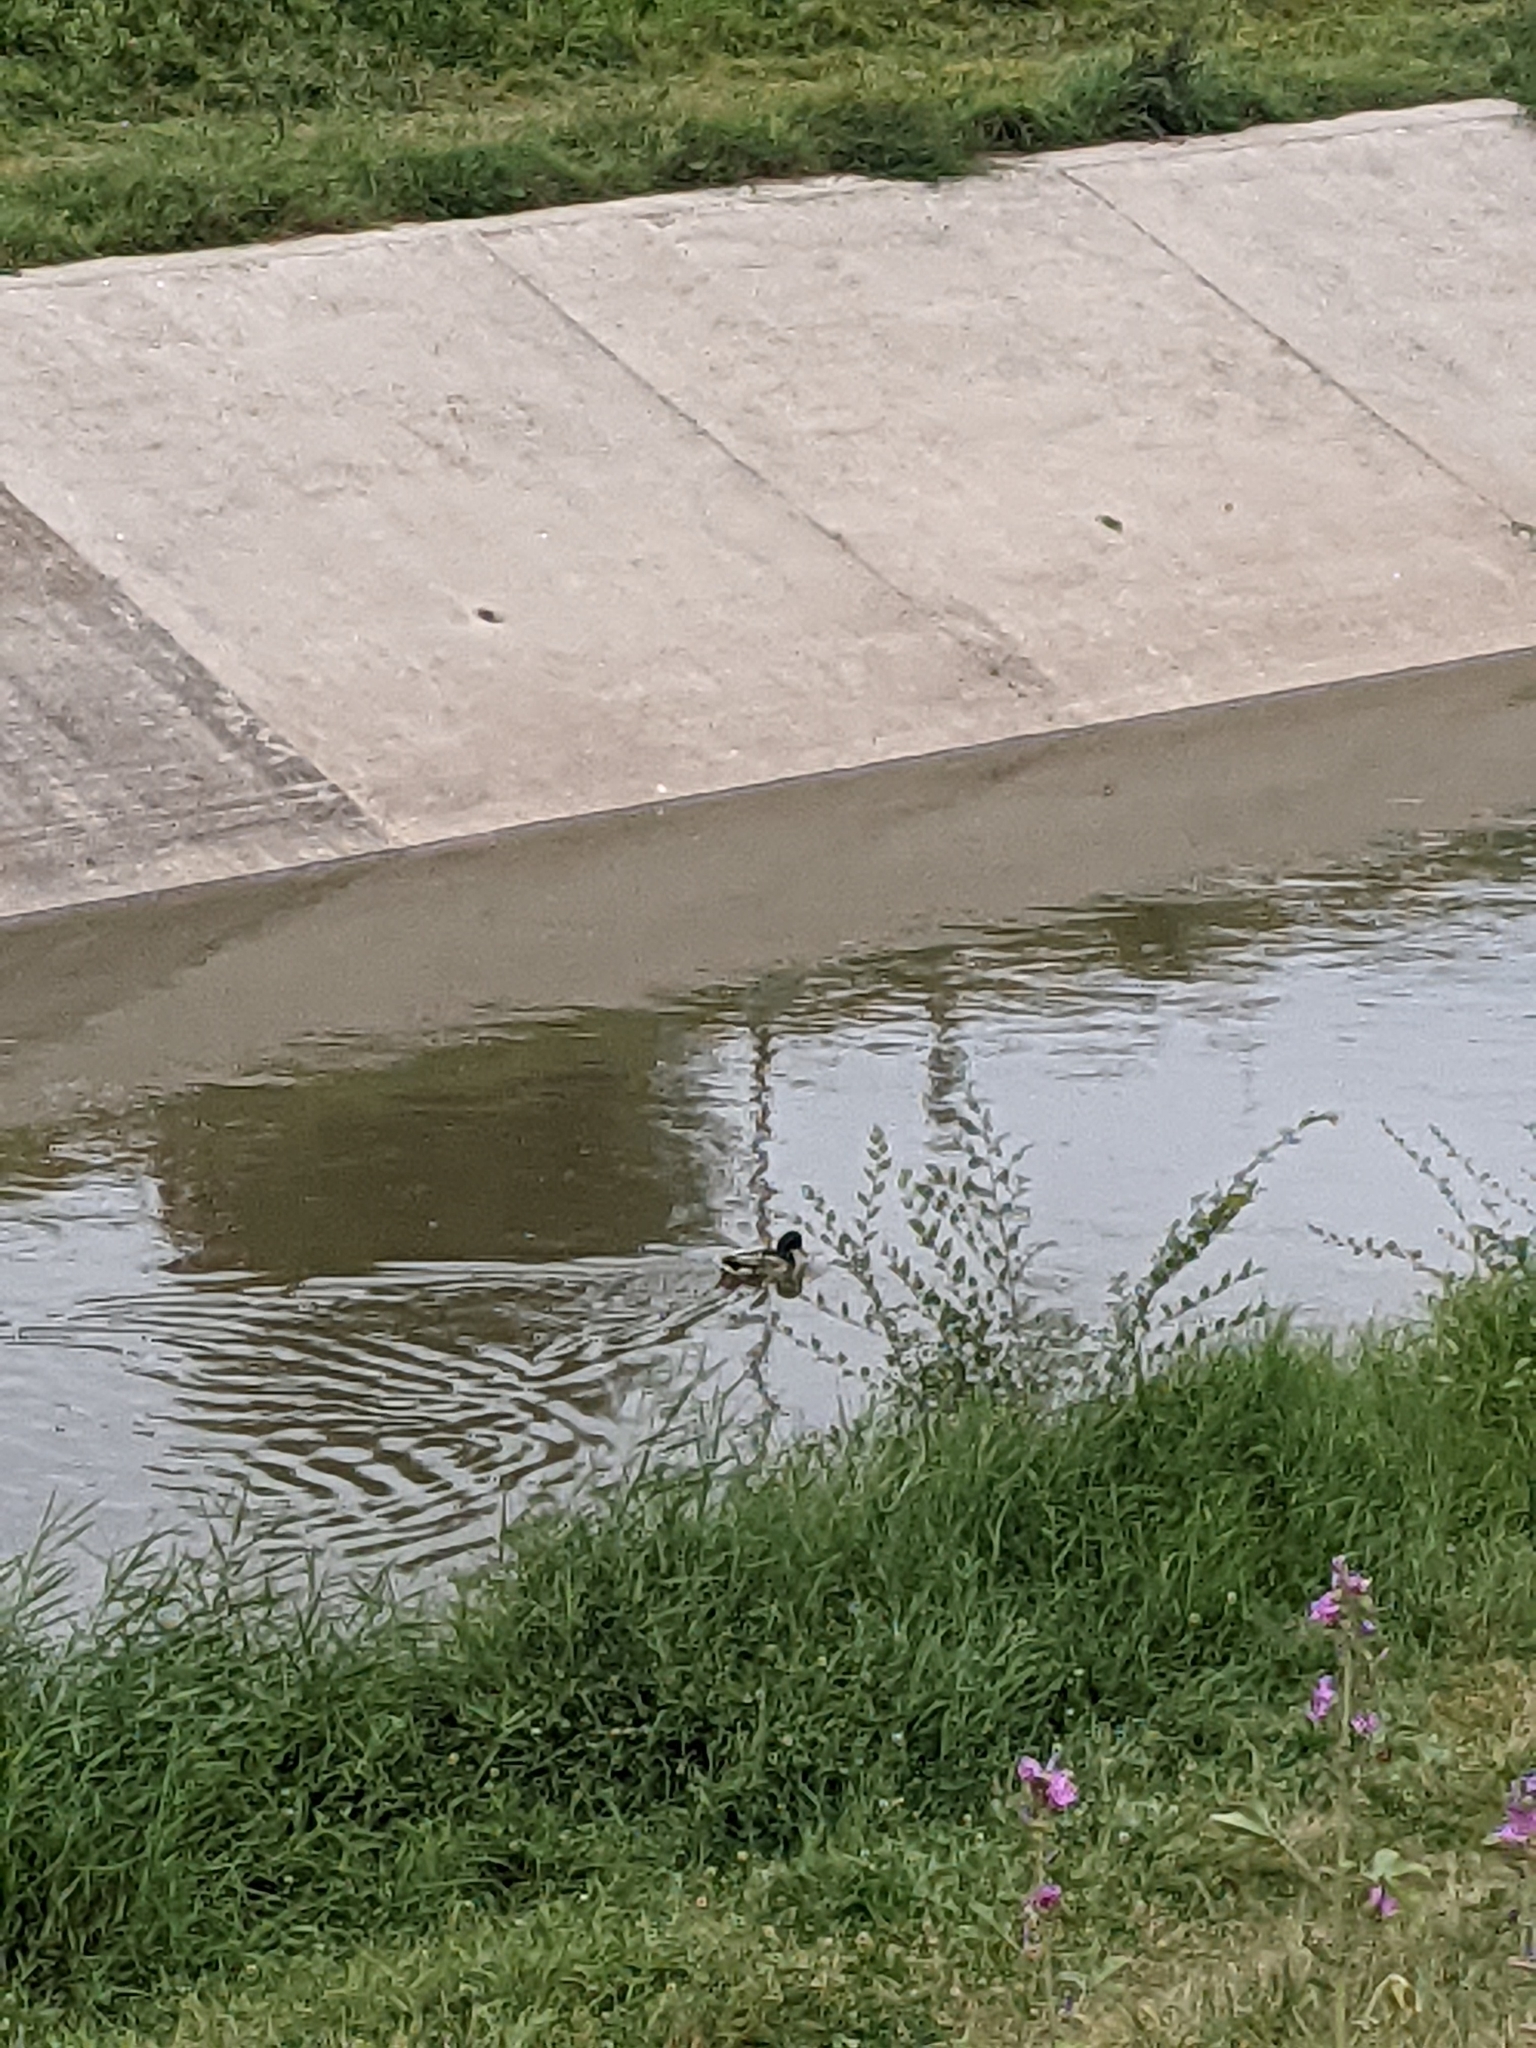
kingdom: Animalia
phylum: Chordata
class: Aves
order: Anseriformes
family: Anatidae
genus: Anas
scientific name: Anas platyrhynchos
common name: Mallard
